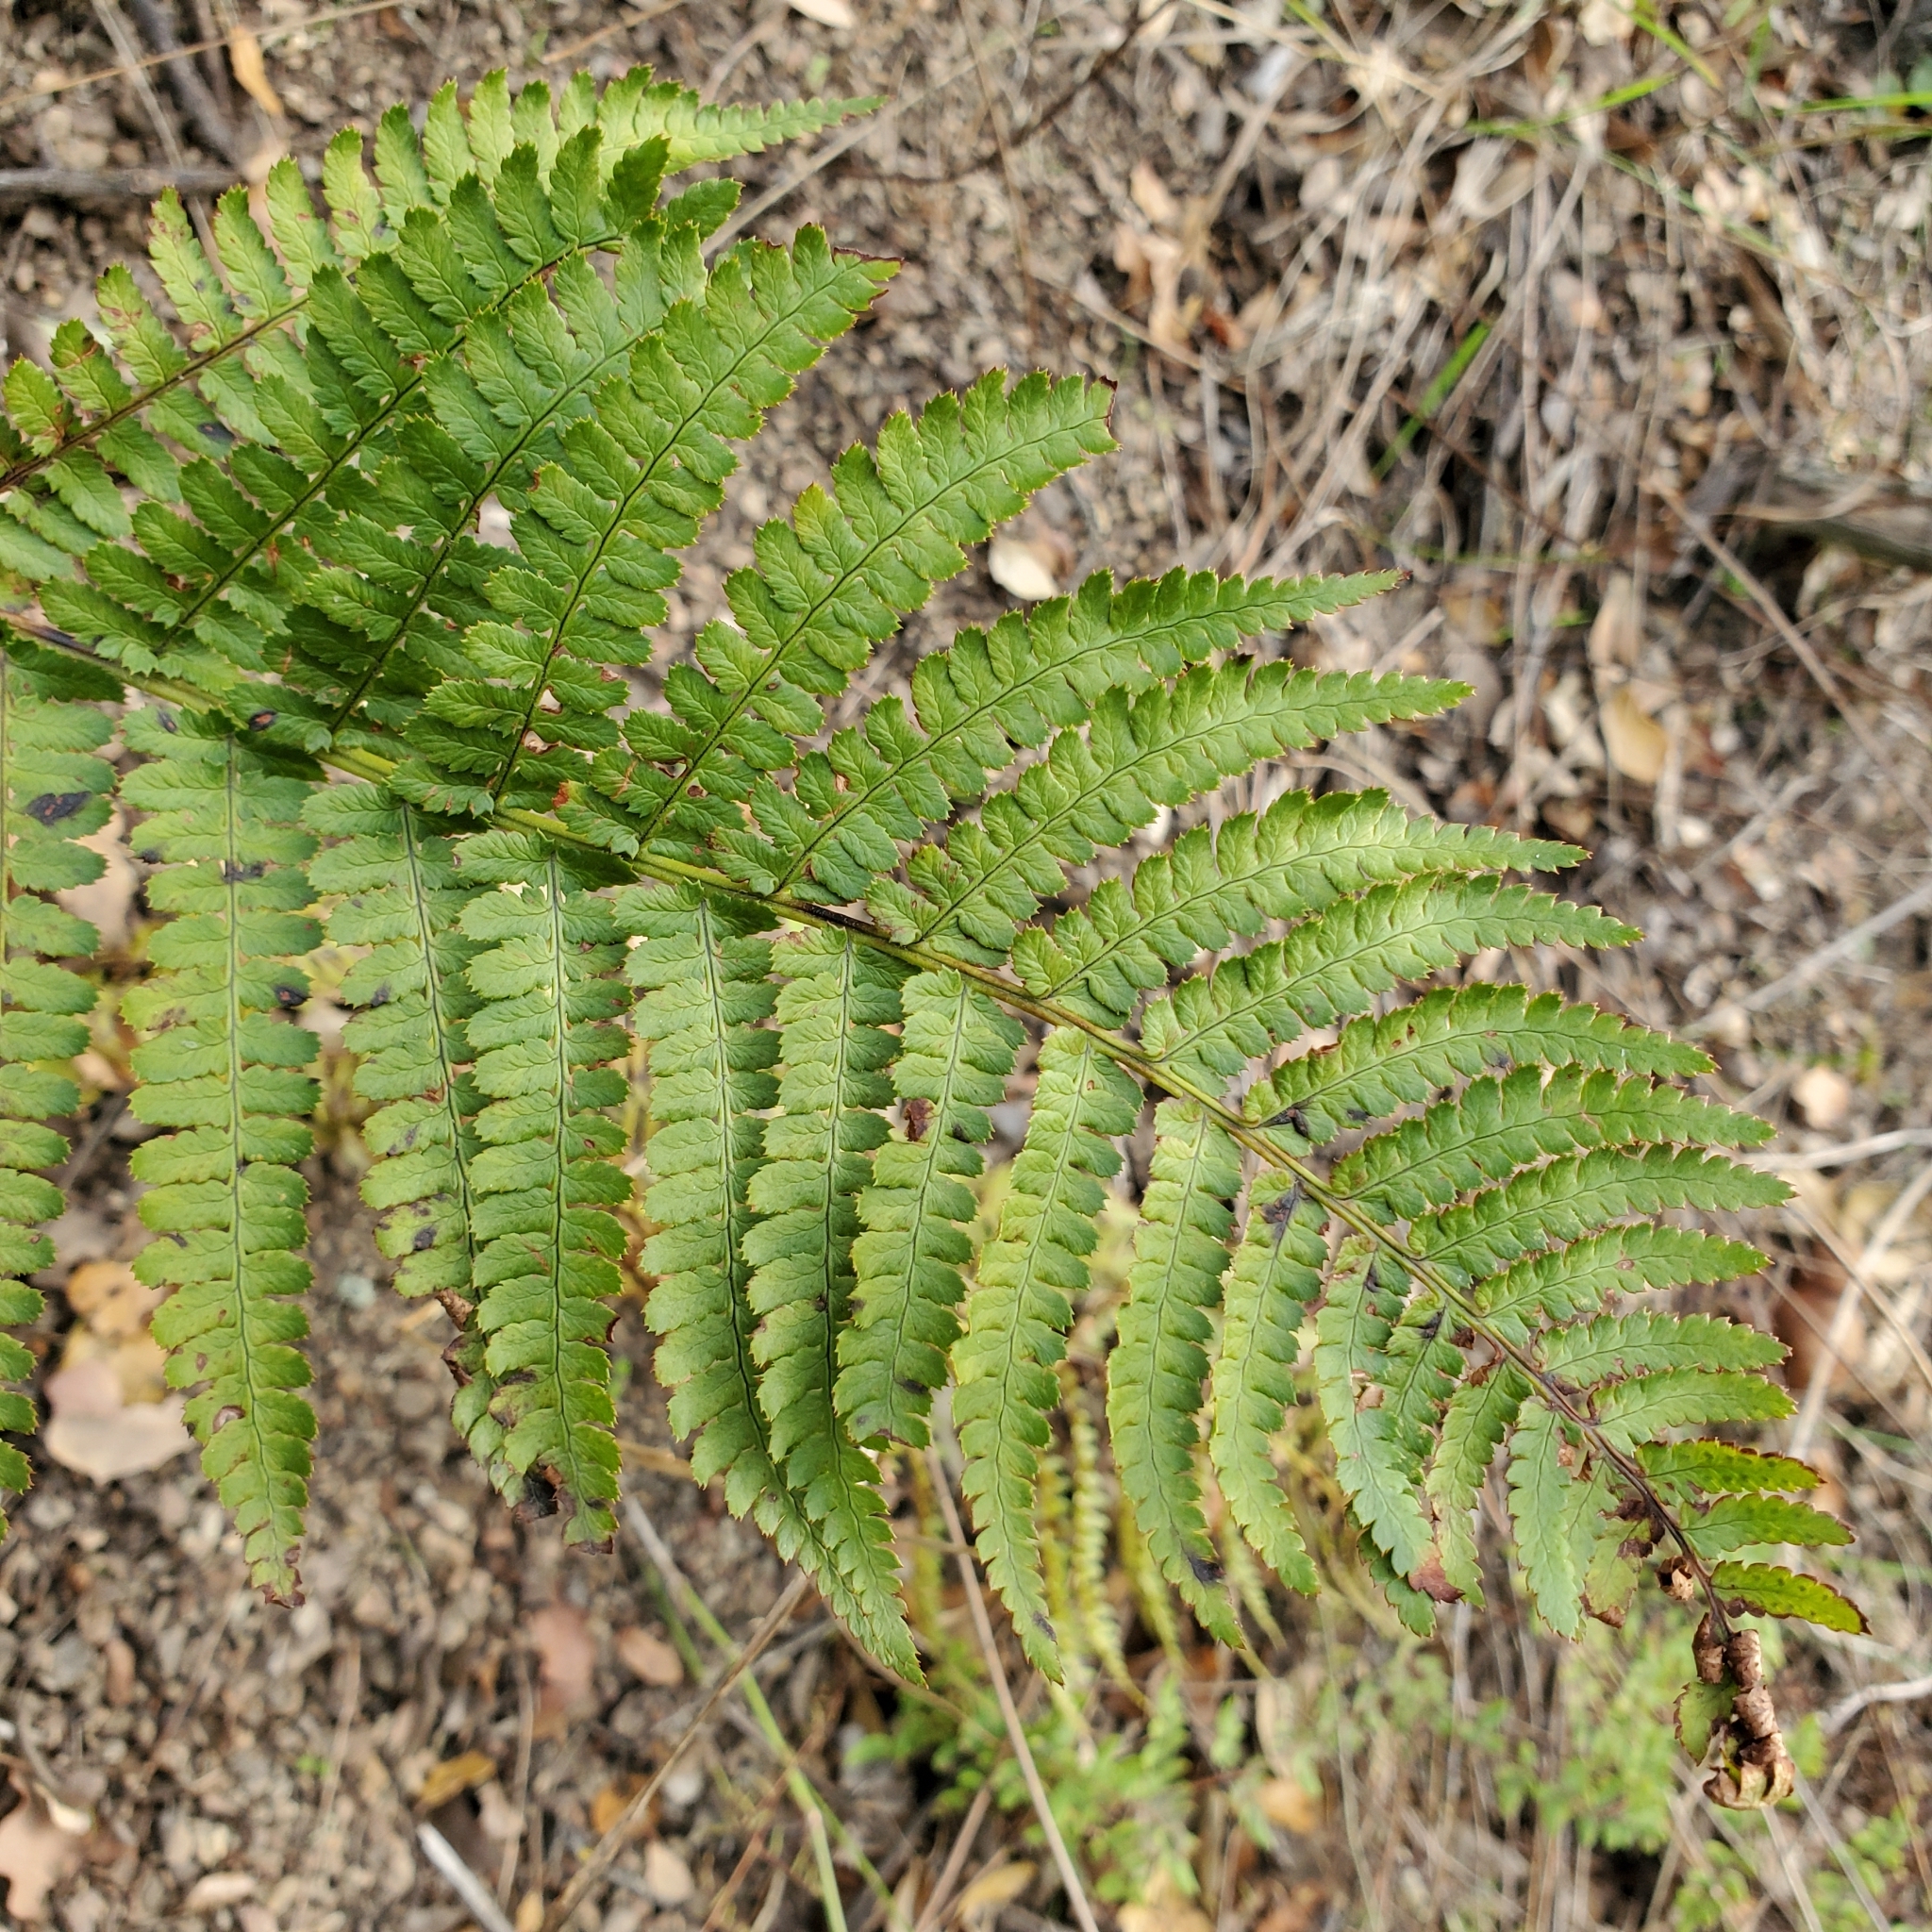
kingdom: Plantae
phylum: Tracheophyta
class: Polypodiopsida
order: Polypodiales
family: Dryopteridaceae
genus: Dryopteris
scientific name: Dryopteris arguta
